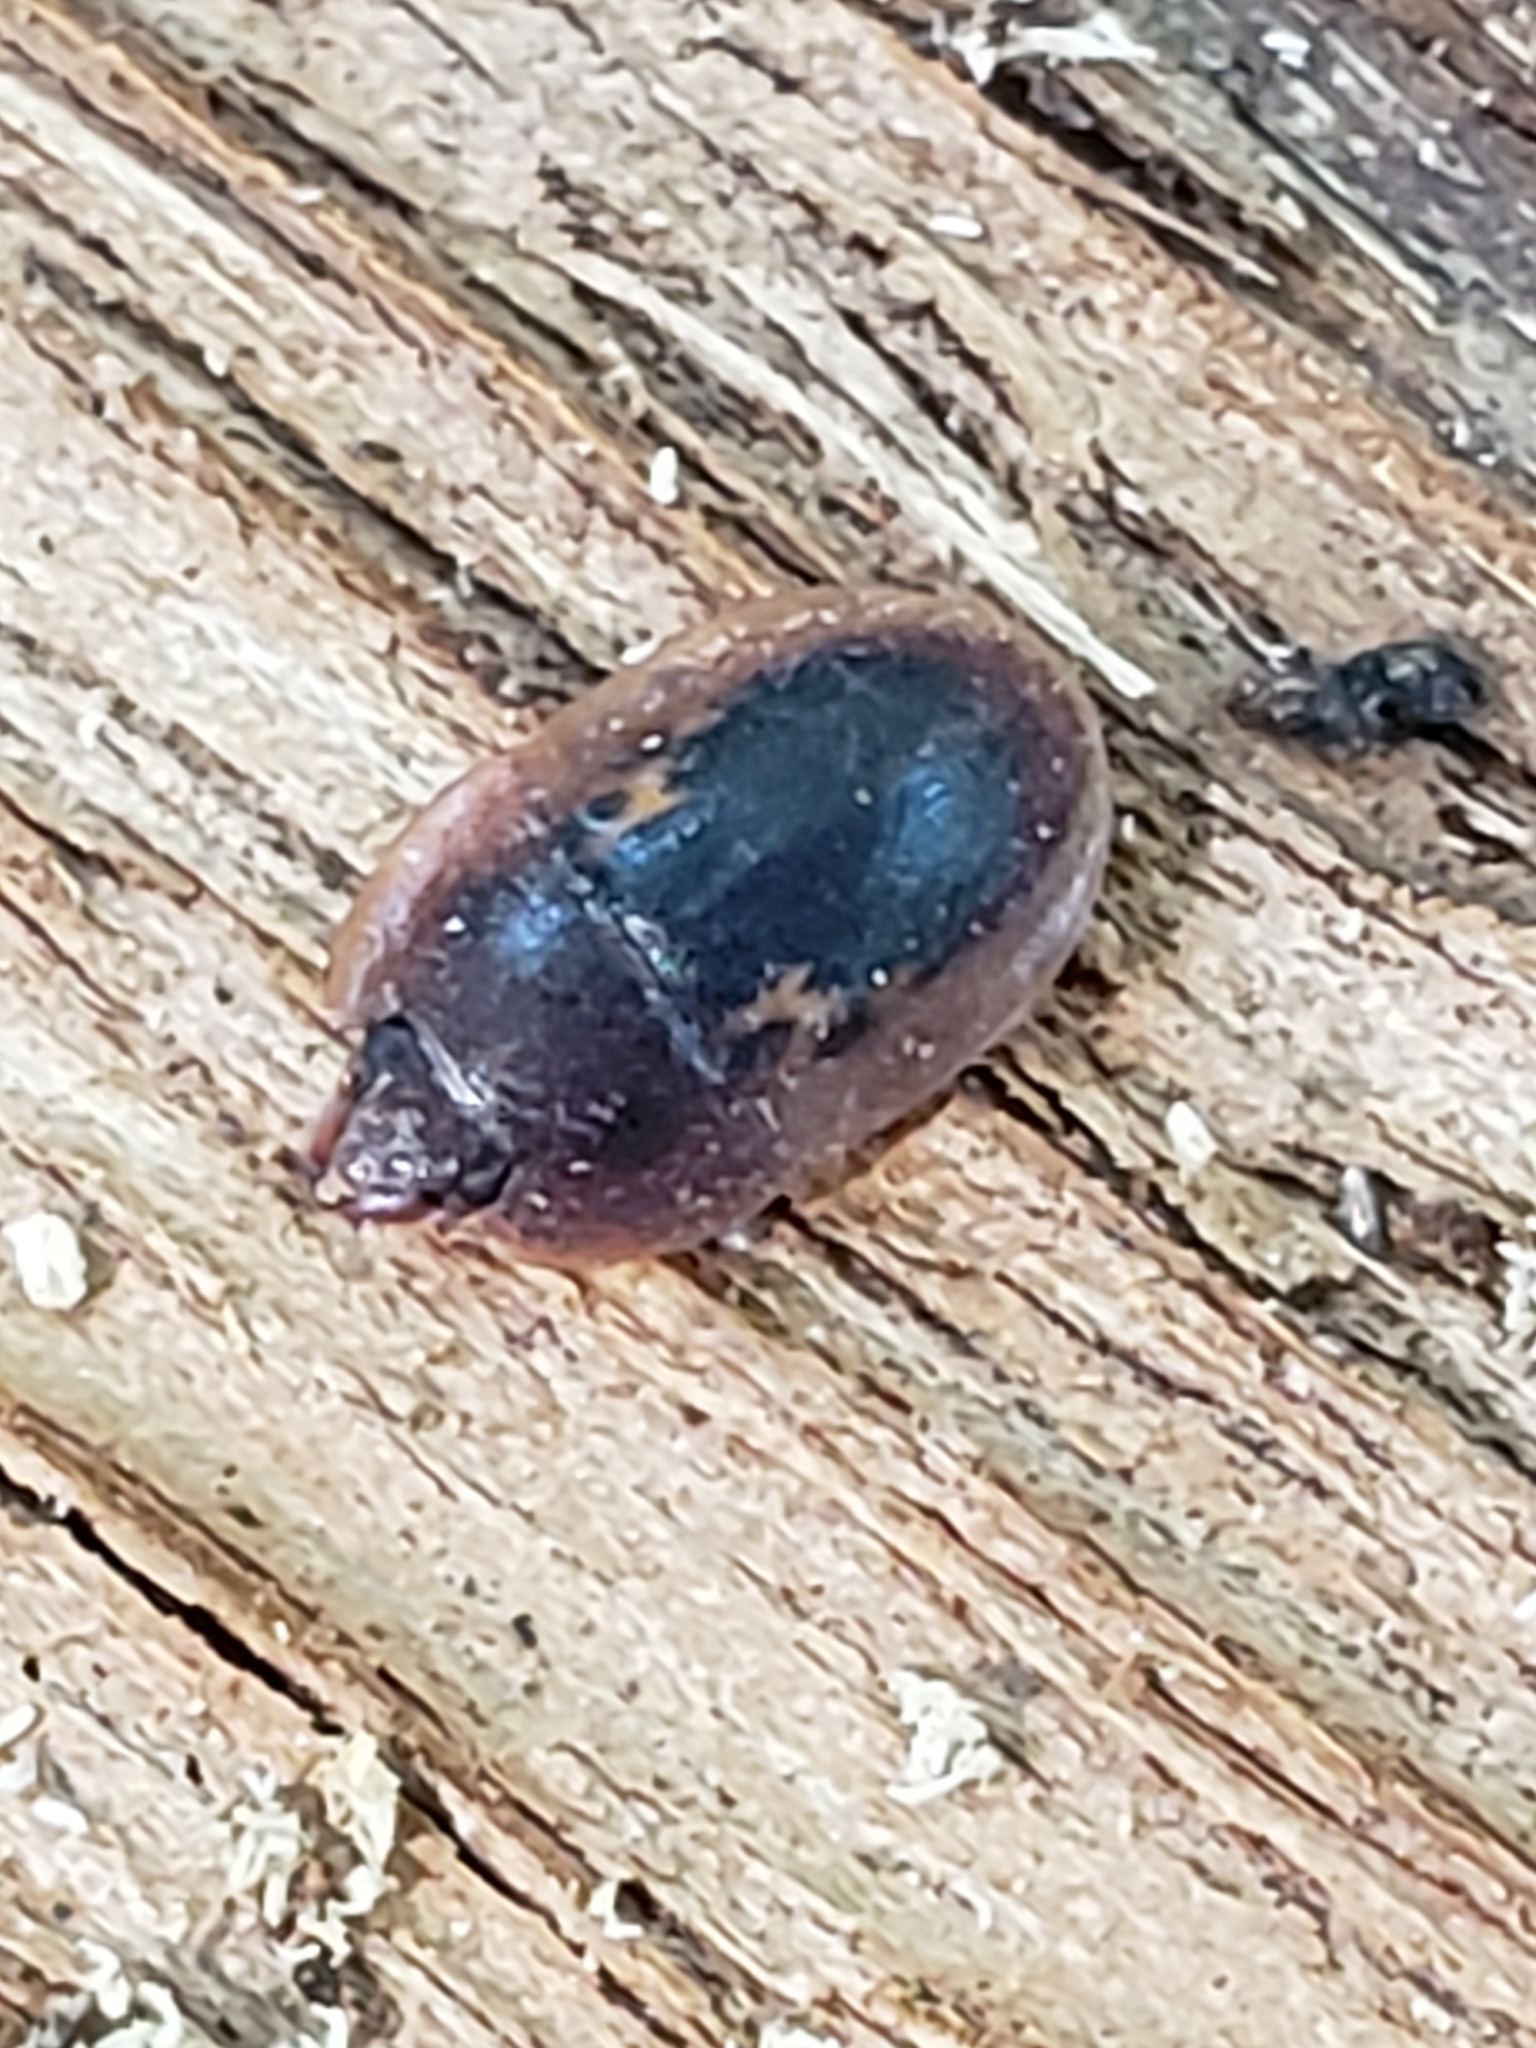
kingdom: Animalia
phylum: Arthropoda
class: Insecta
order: Coleoptera
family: Nitidulidae
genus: Prometopia
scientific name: Prometopia sexmaculata
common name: Six-spotted sap-feeding beetle
